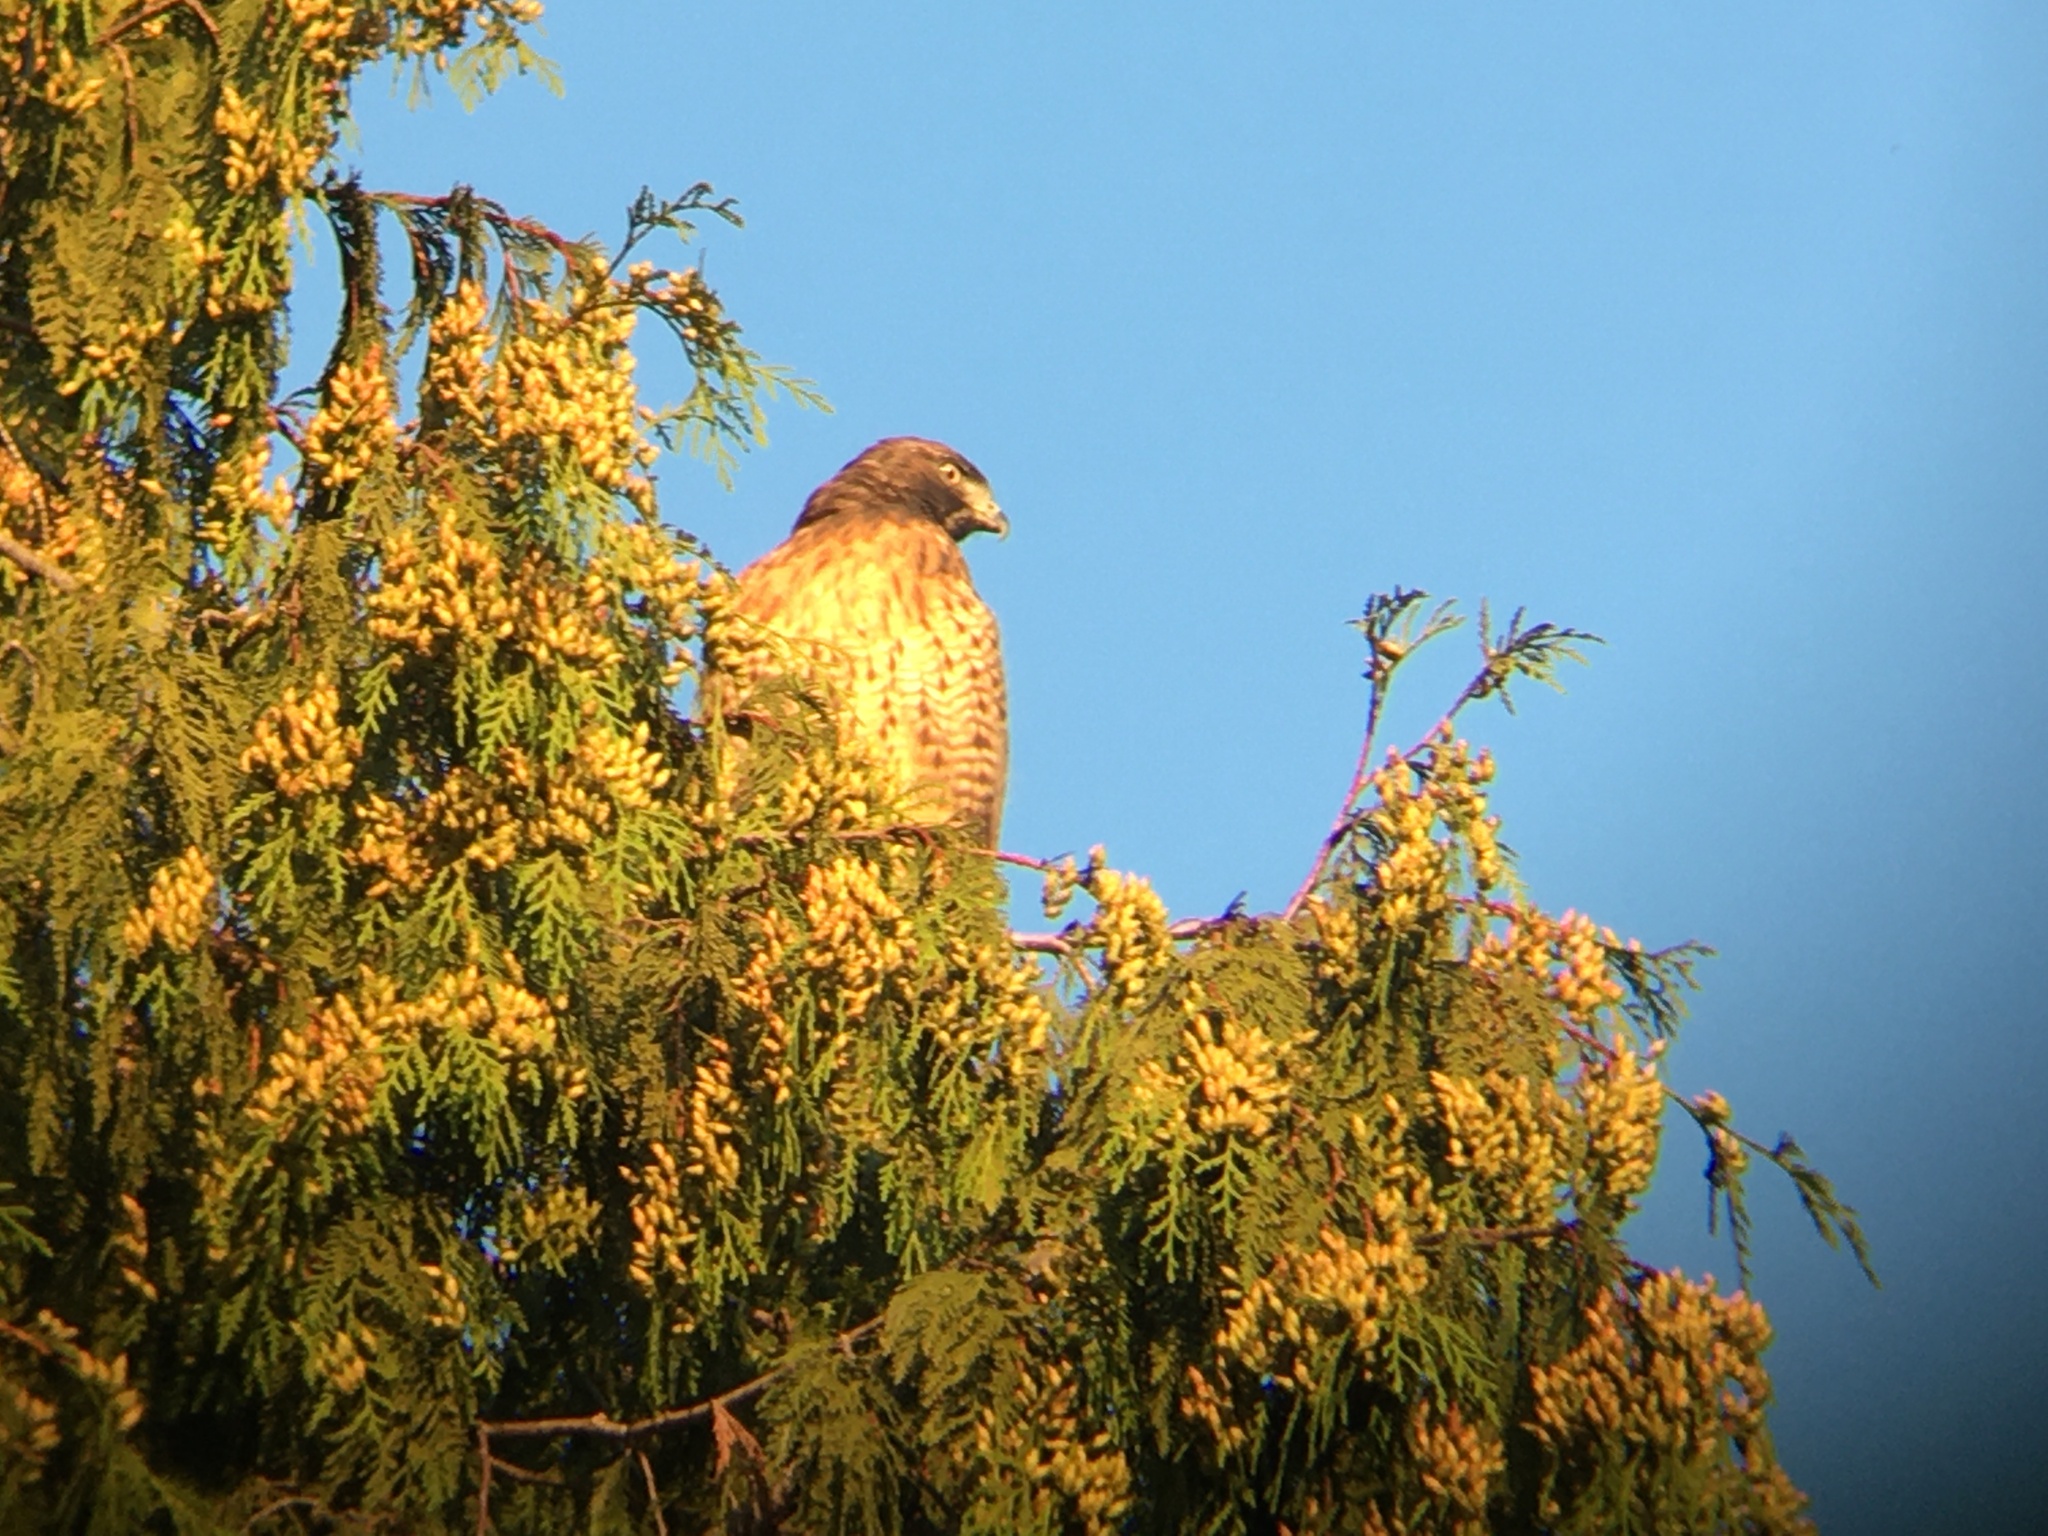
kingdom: Animalia
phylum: Chordata
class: Aves
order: Accipitriformes
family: Accipitridae
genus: Buteo
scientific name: Buteo jamaicensis
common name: Red-tailed hawk
